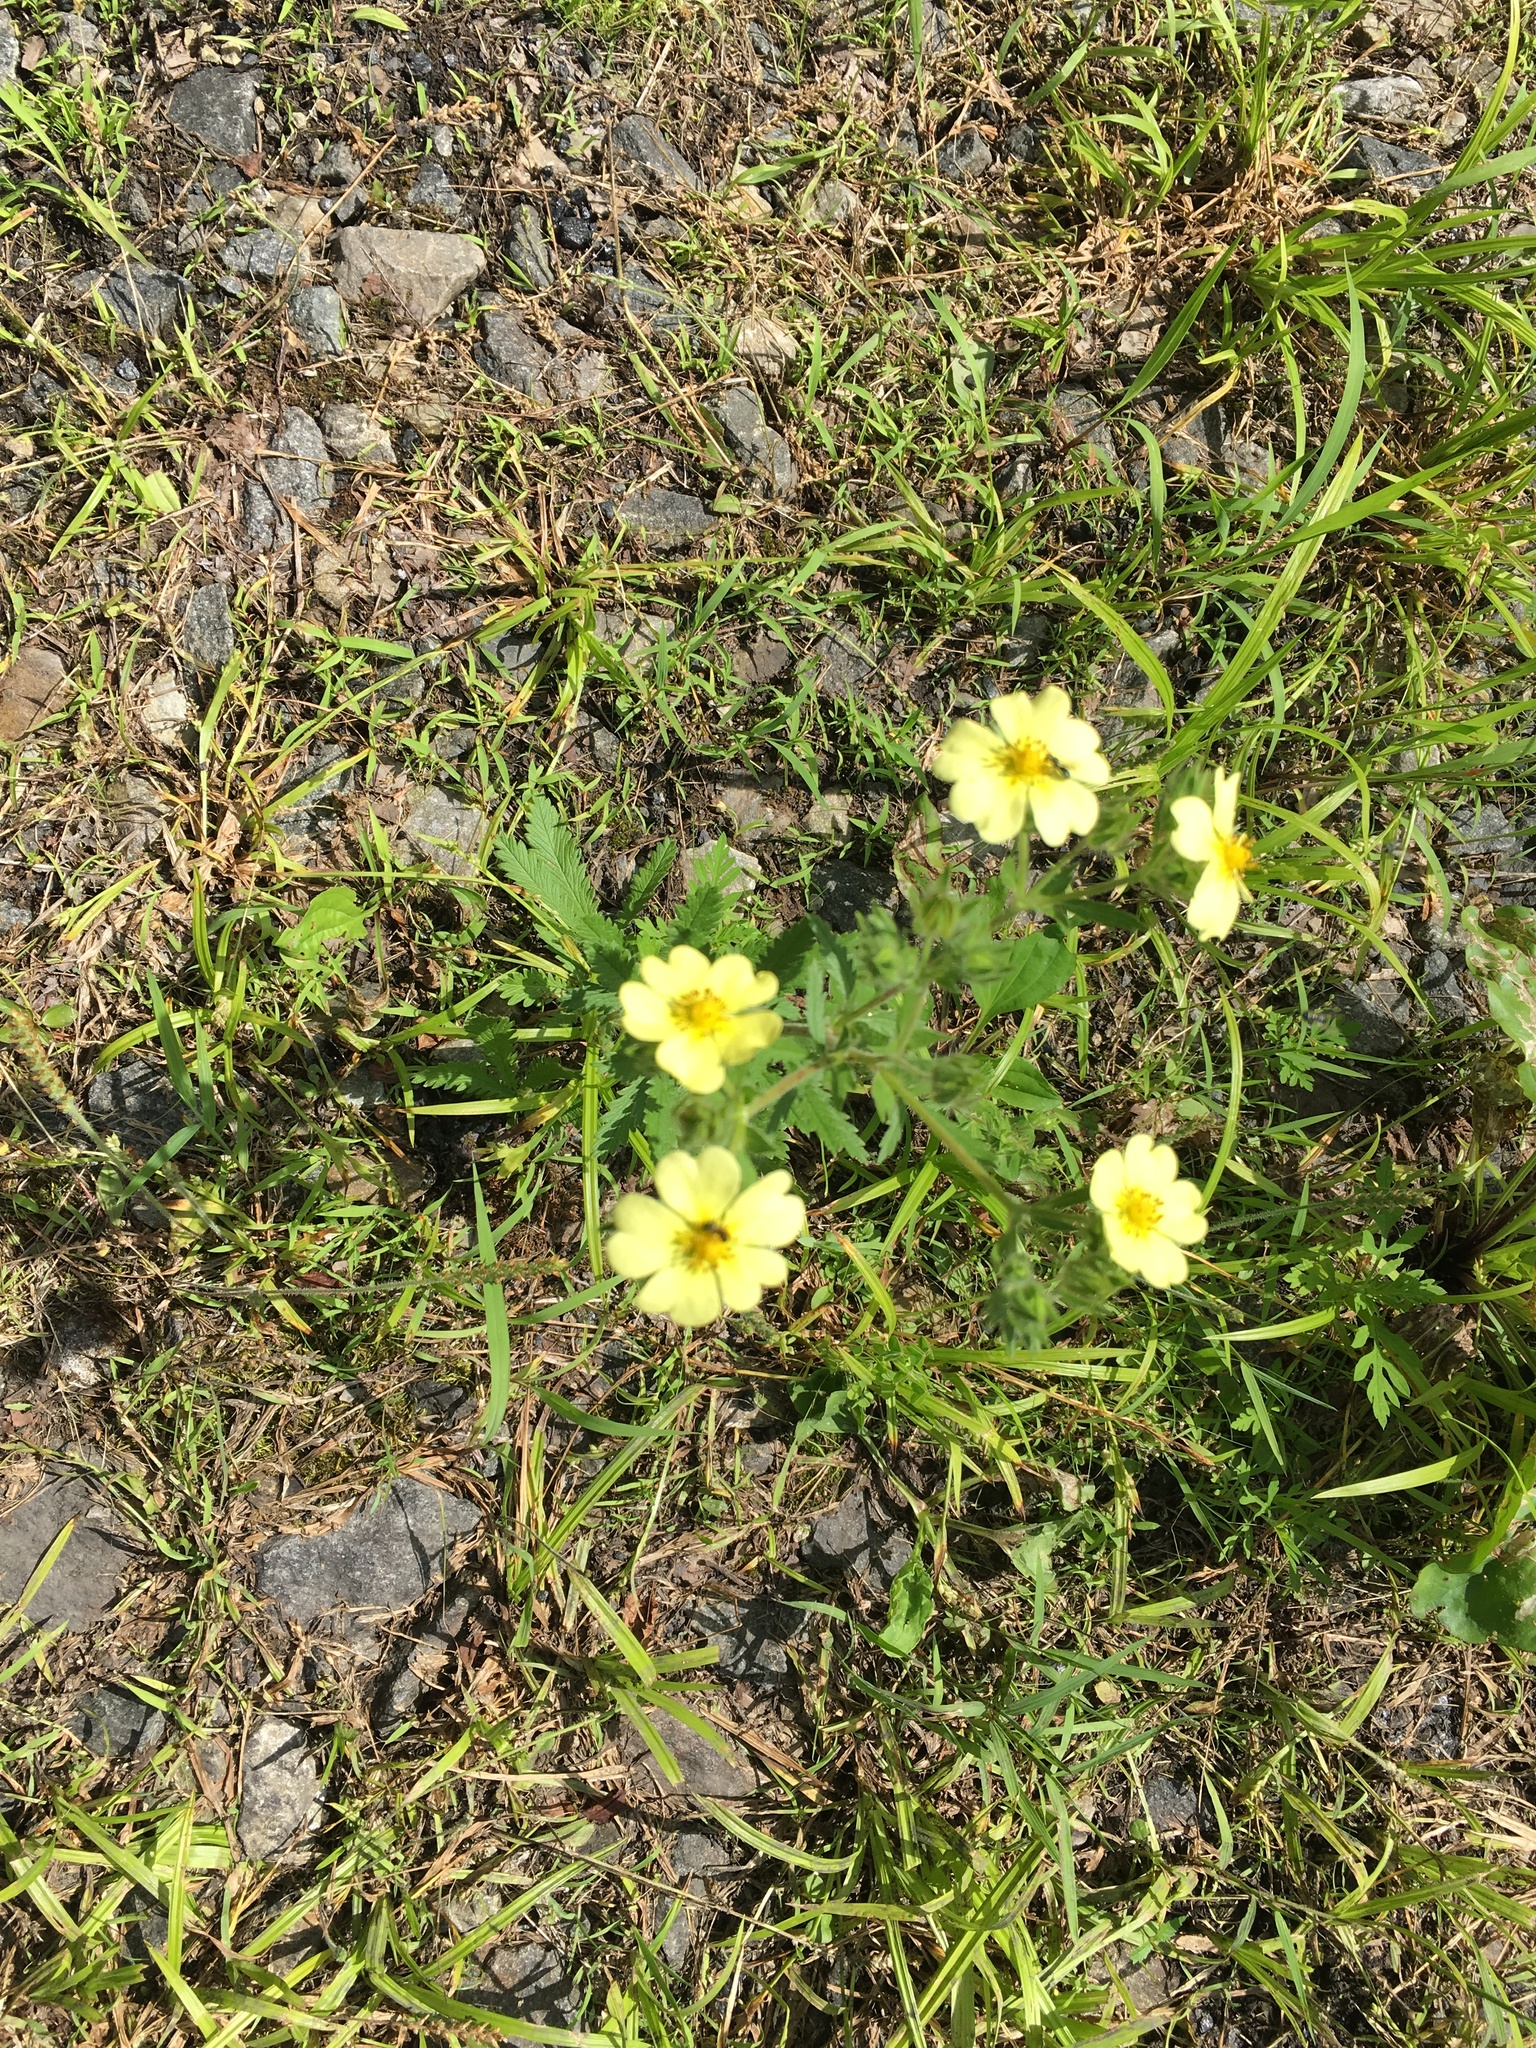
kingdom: Plantae
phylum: Tracheophyta
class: Magnoliopsida
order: Rosales
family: Rosaceae
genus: Potentilla
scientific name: Potentilla recta
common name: Sulphur cinquefoil
